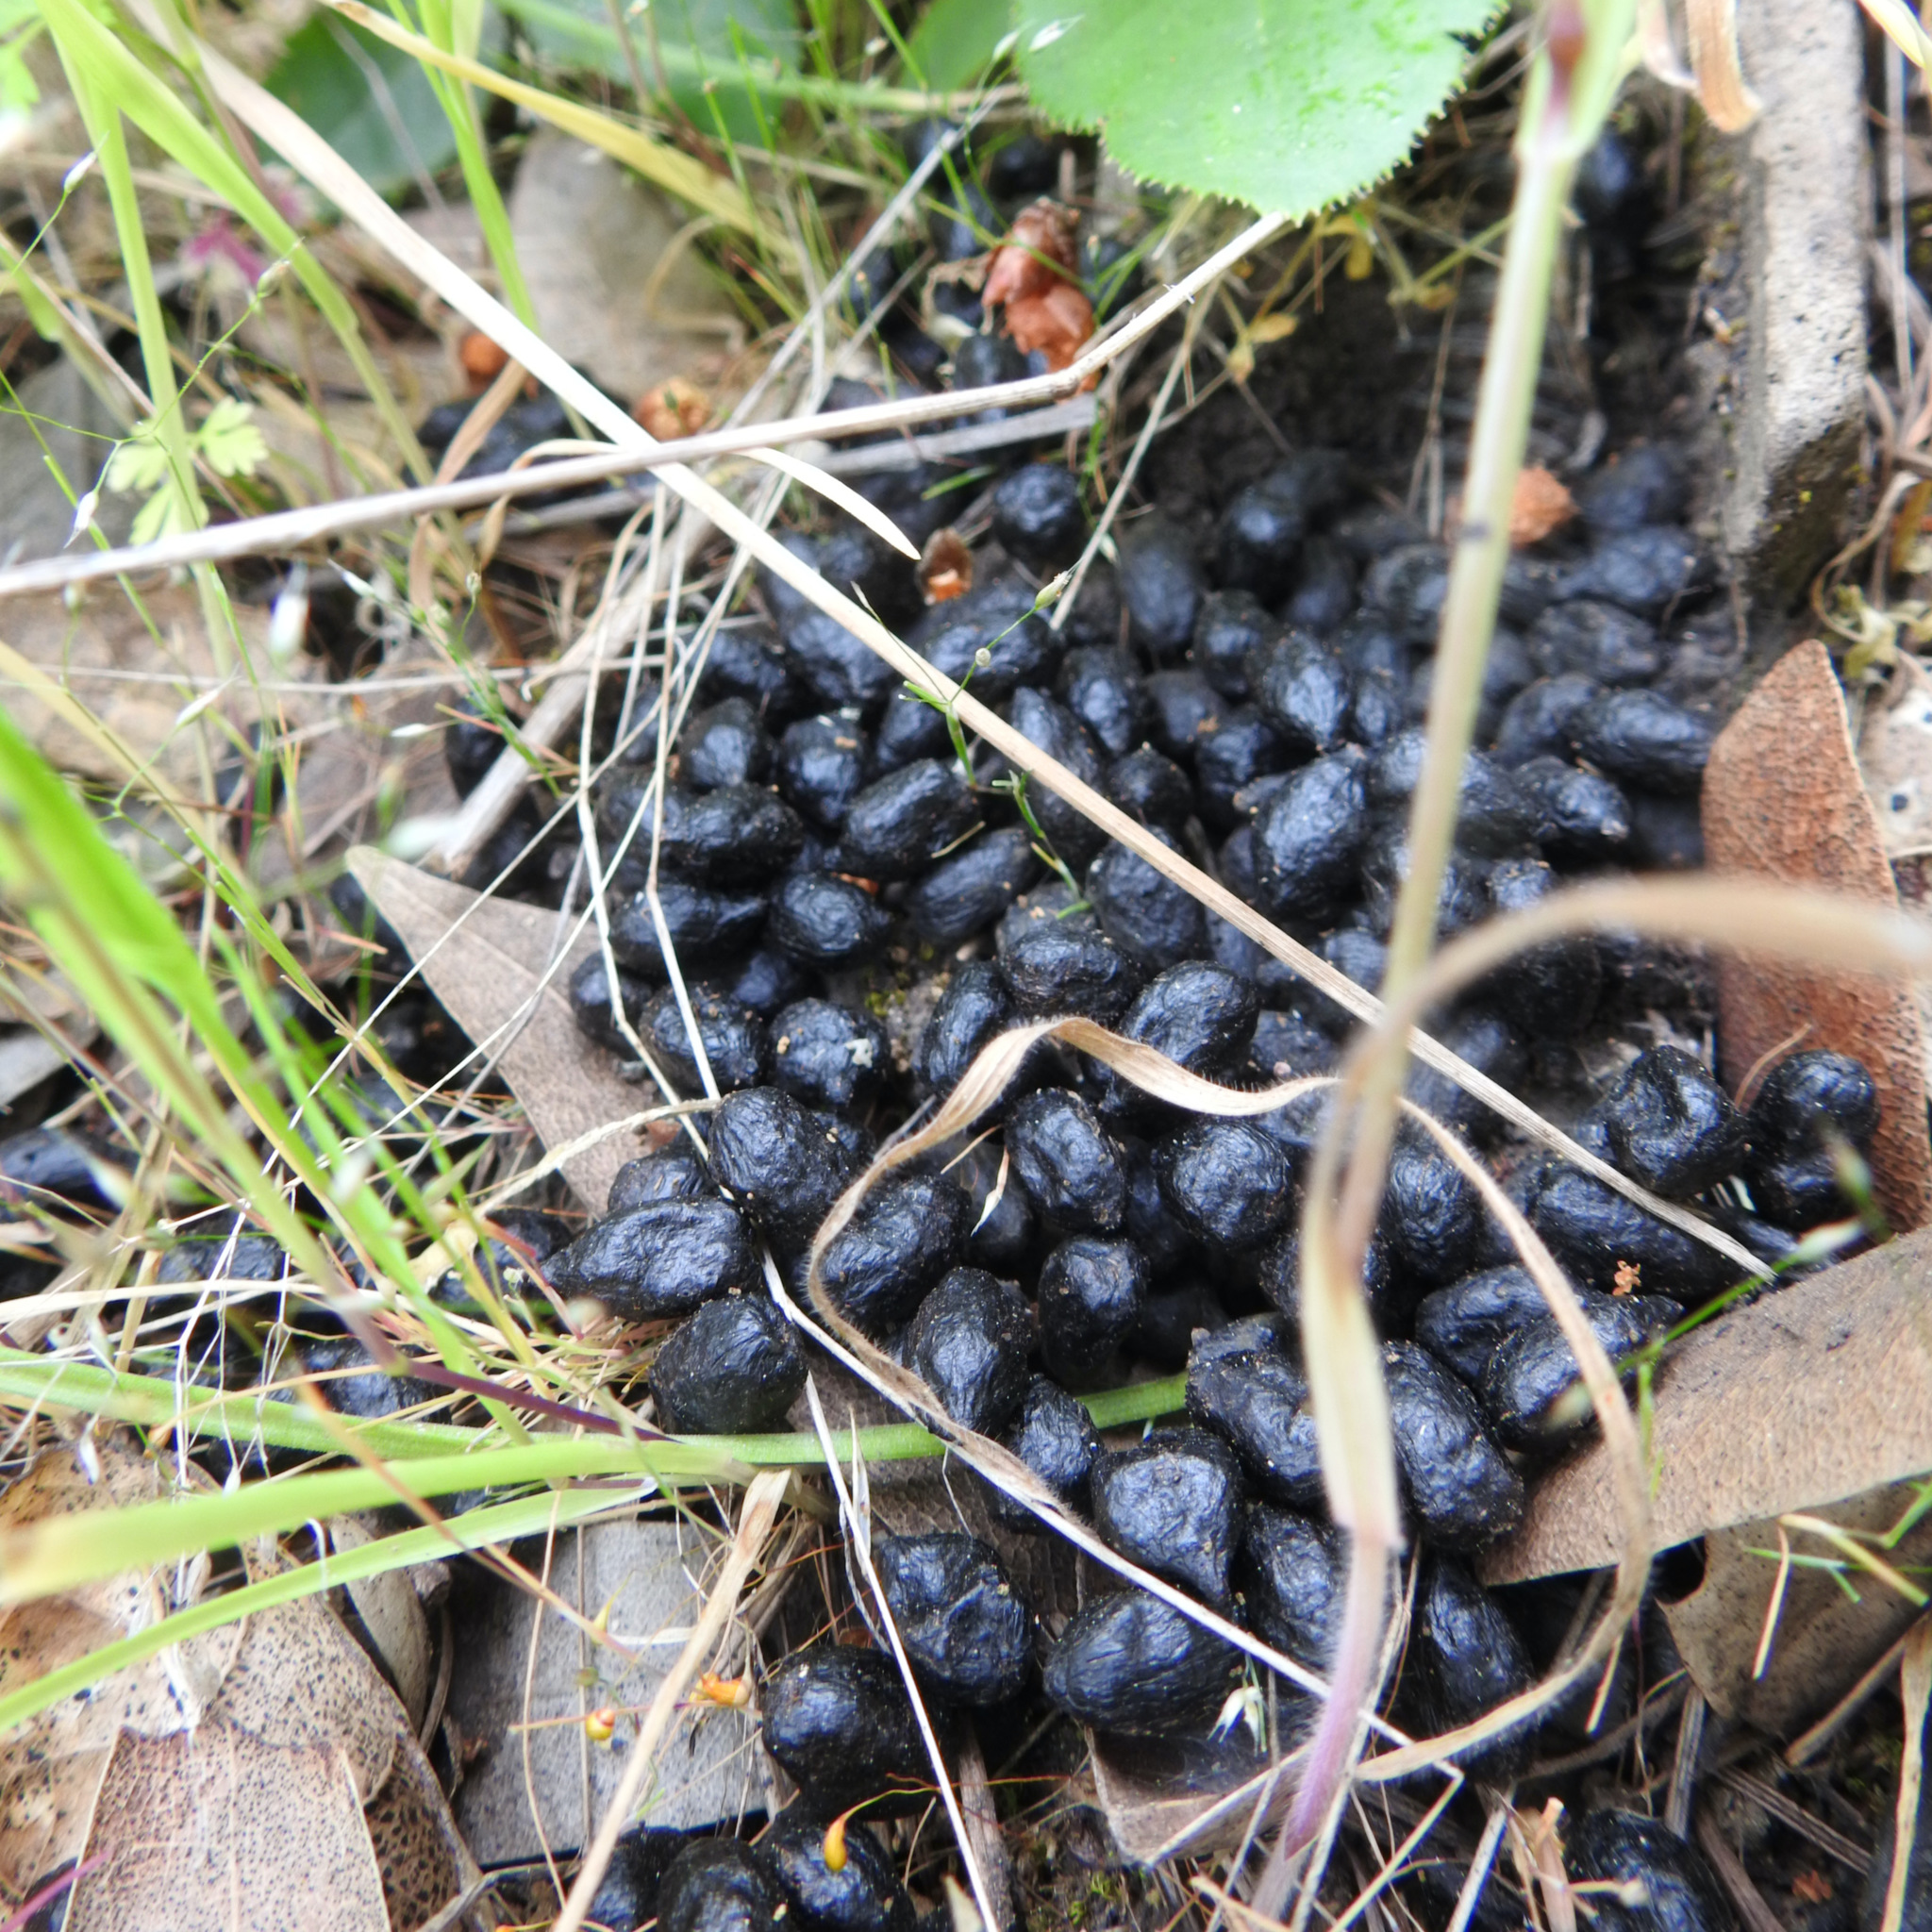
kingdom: Animalia
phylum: Chordata
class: Mammalia
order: Artiodactyla
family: Cervidae
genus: Odocoileus
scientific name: Odocoileus hemionus
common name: Mule deer
